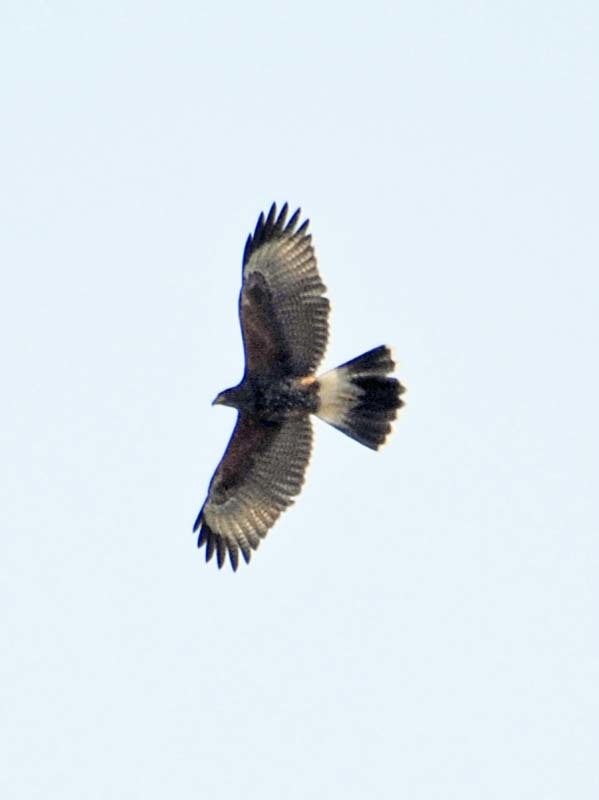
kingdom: Animalia
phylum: Chordata
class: Aves
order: Accipitriformes
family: Accipitridae
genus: Parabuteo
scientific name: Parabuteo unicinctus
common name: Harris's hawk
